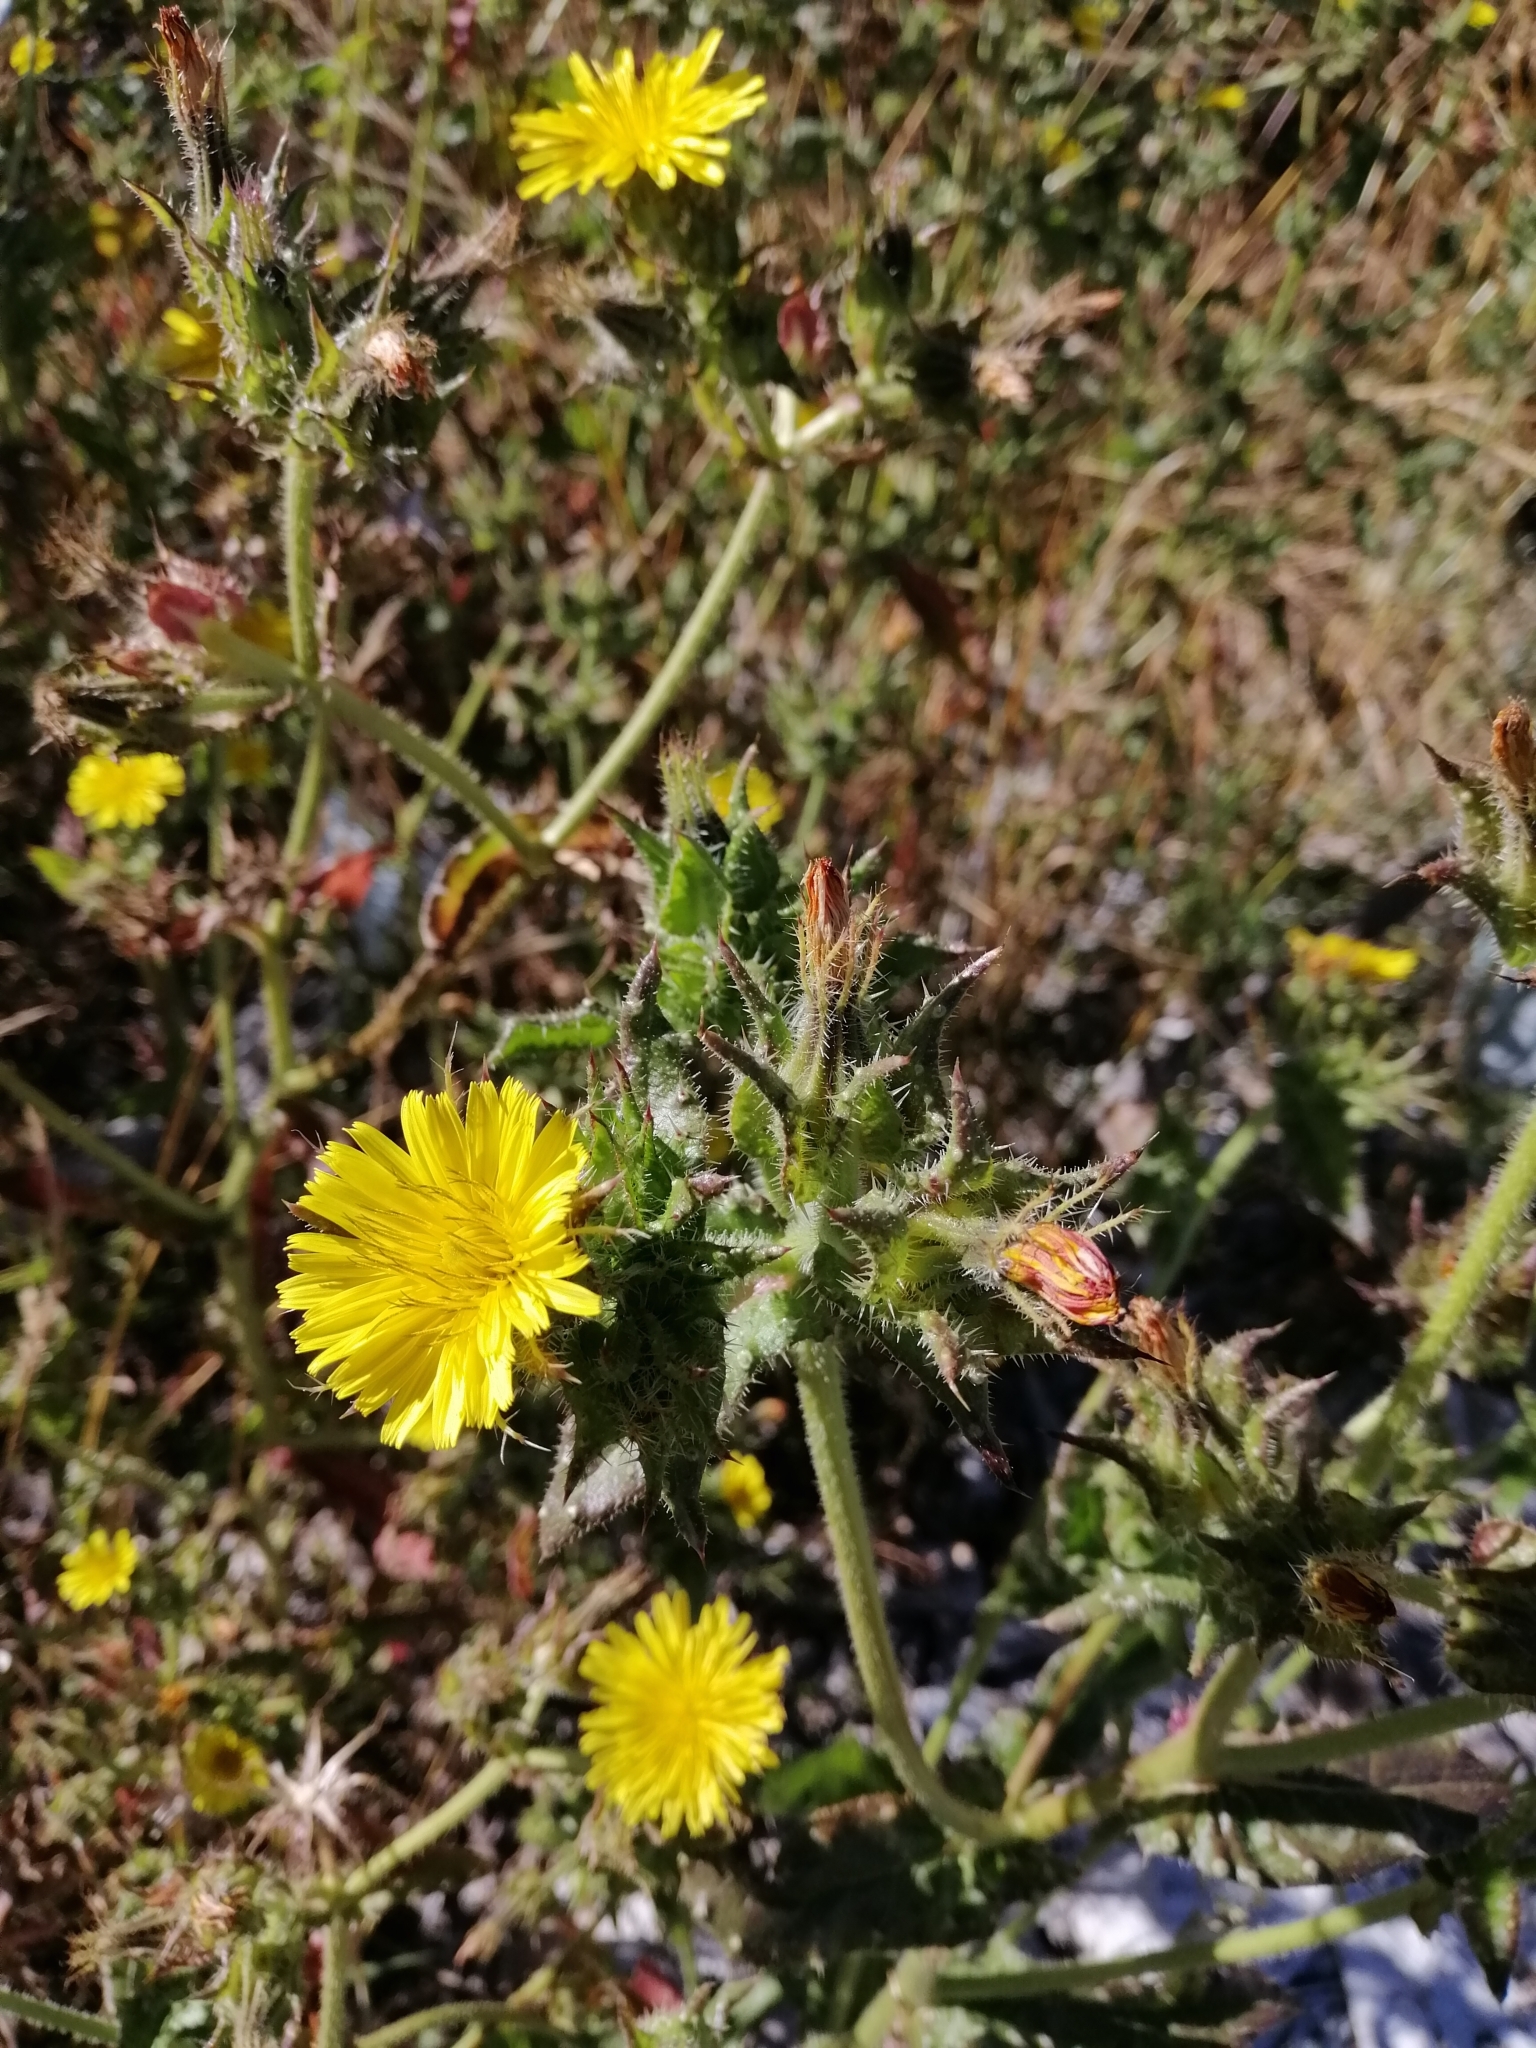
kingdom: Plantae
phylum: Tracheophyta
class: Magnoliopsida
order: Asterales
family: Asteraceae
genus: Helminthotheca
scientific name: Helminthotheca echioides
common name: Ox-tongue
